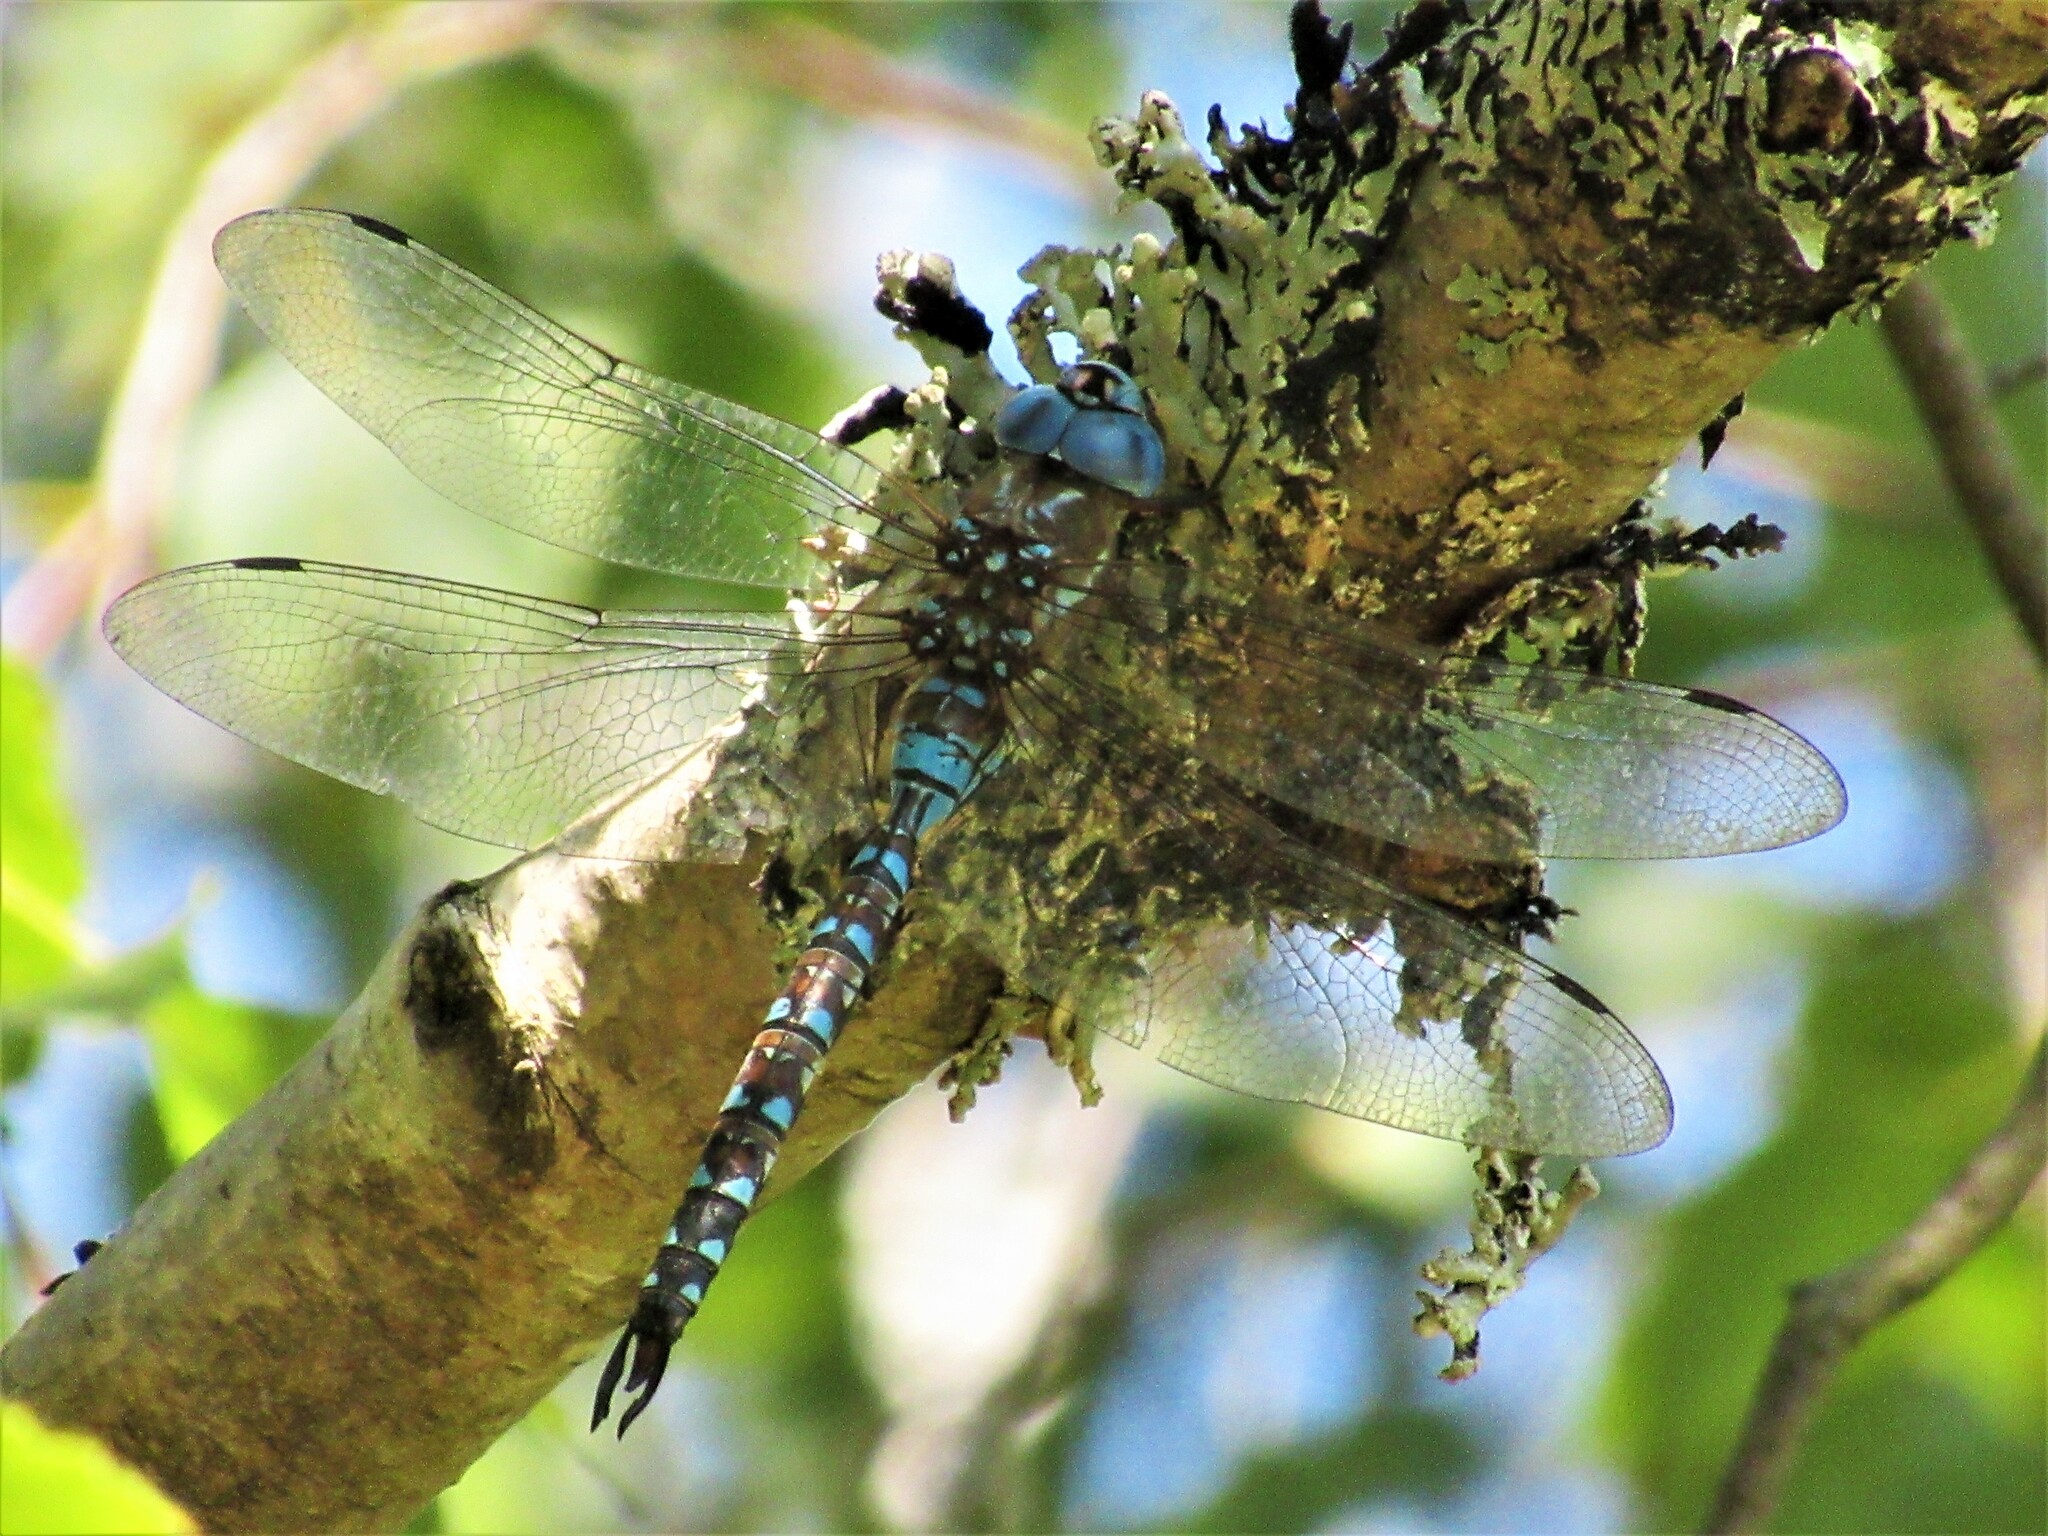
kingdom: Animalia
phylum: Arthropoda
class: Insecta
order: Odonata
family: Aeshnidae
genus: Rhionaeschna
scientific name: Rhionaeschna multicolor
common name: Blue-eyed darner
